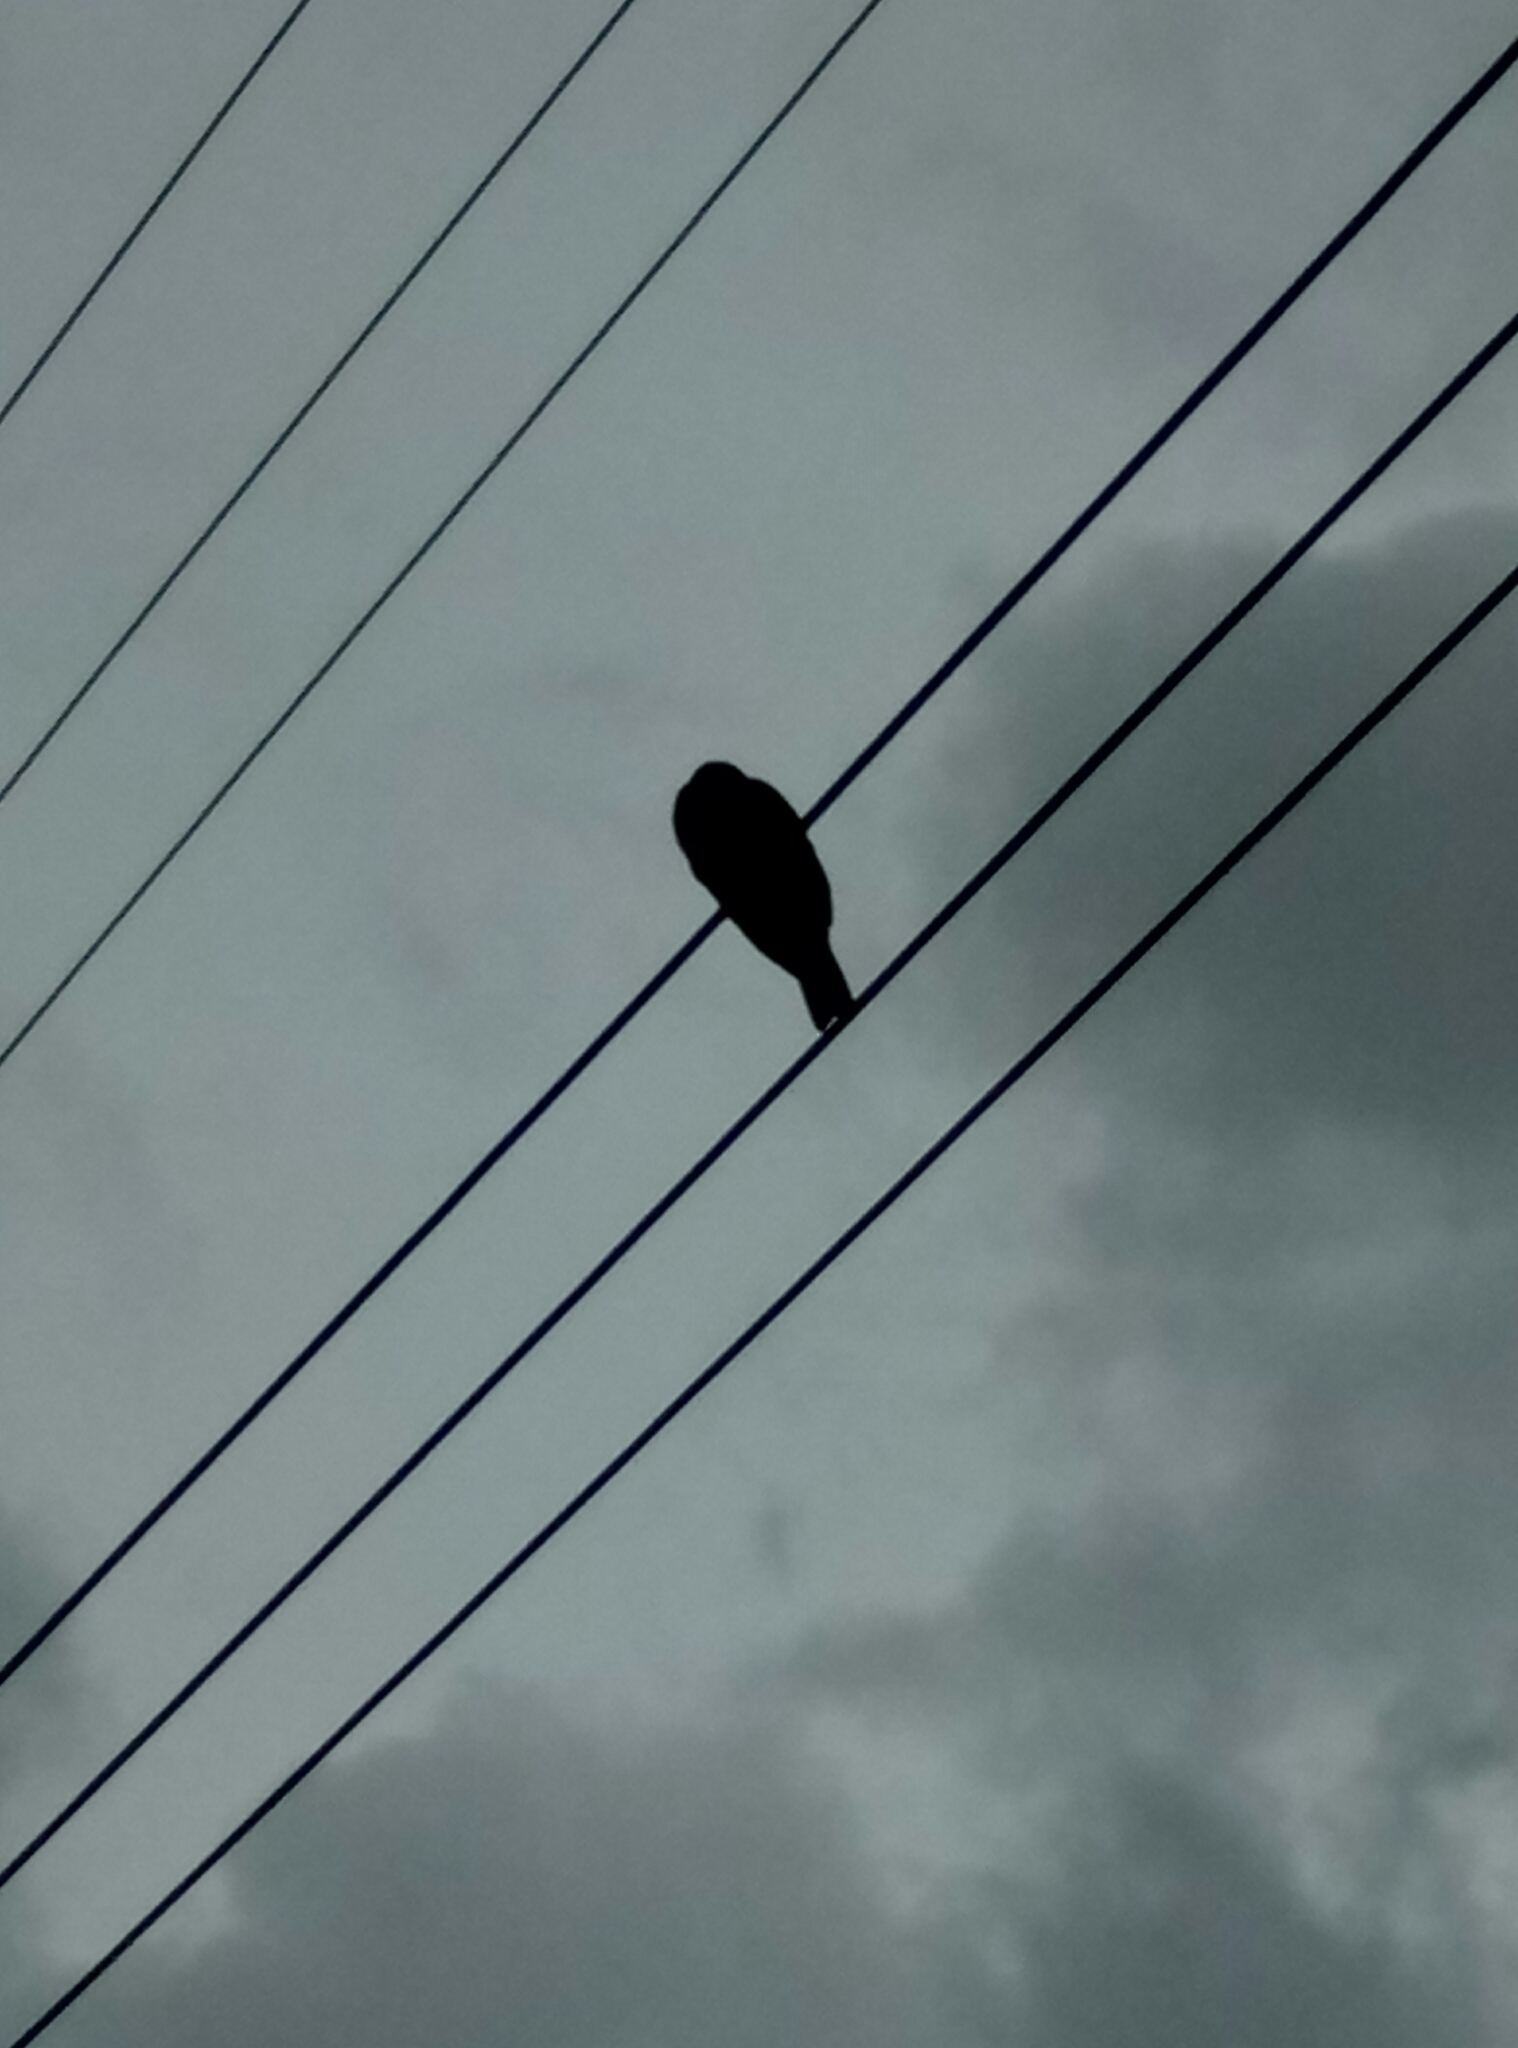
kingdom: Animalia
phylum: Chordata
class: Aves
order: Columbiformes
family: Columbidae
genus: Hemiphaga
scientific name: Hemiphaga novaeseelandiae
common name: New zealand pigeon
